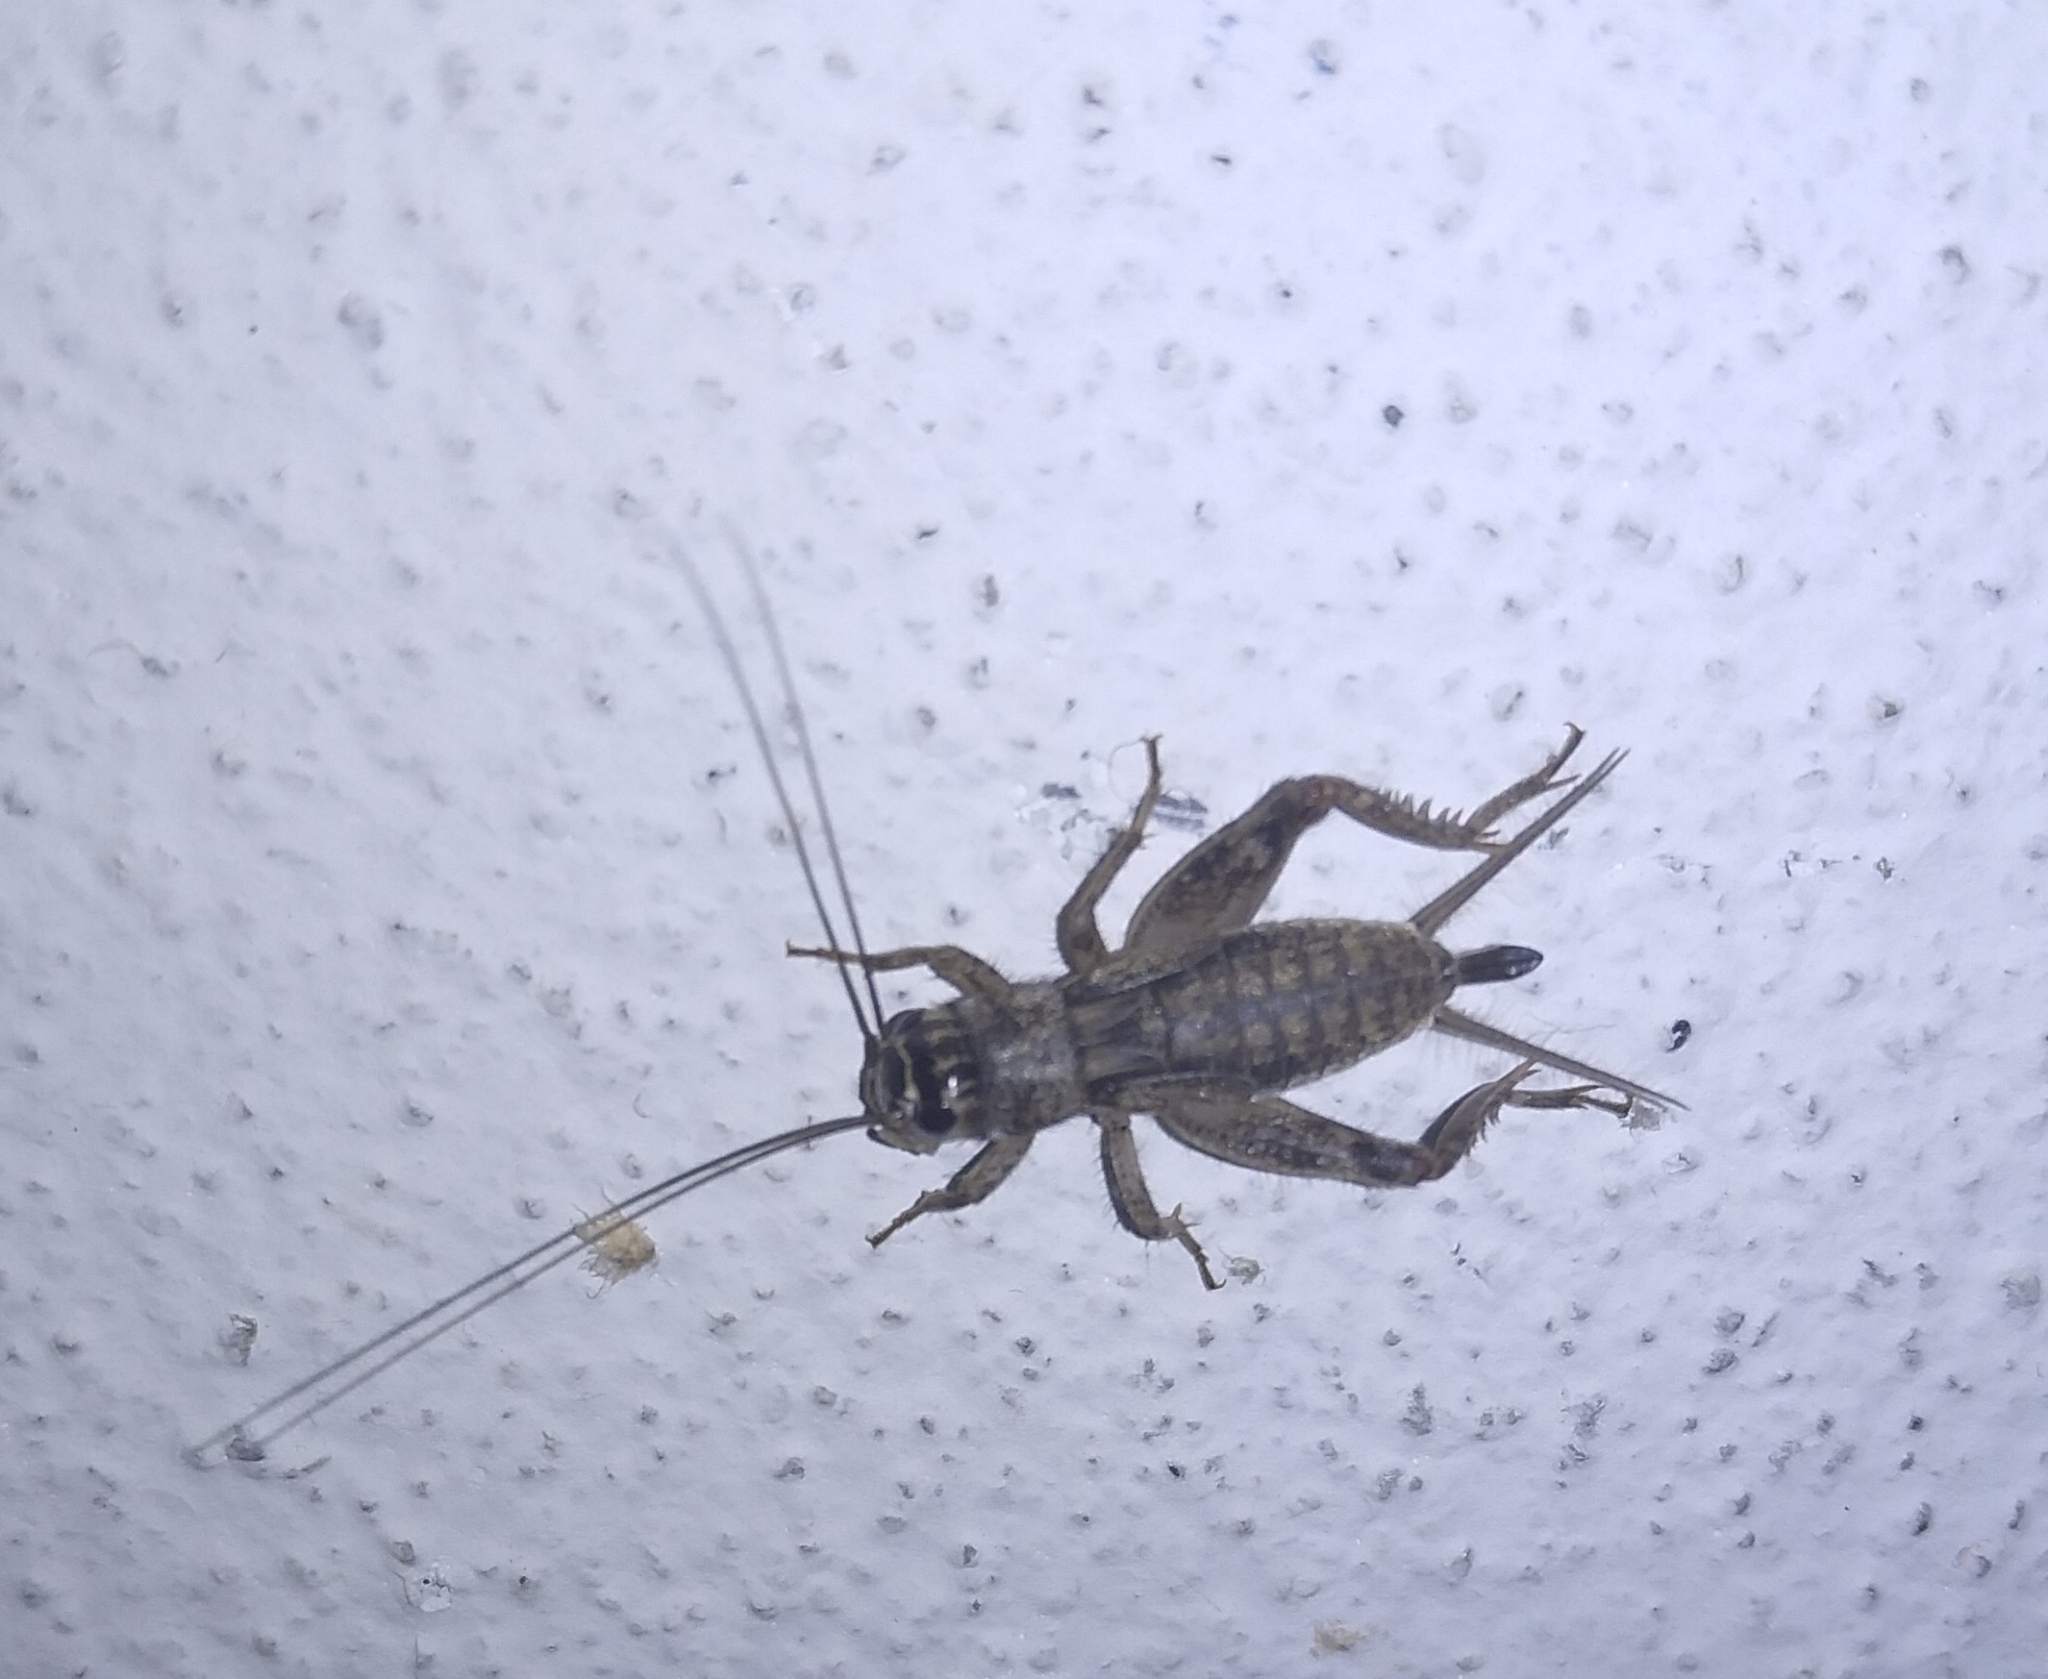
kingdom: Animalia
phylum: Arthropoda
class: Insecta
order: Orthoptera
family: Gryllidae
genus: Eumodicogryllus
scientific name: Eumodicogryllus bordigalensis
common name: Bordeaux cricket
